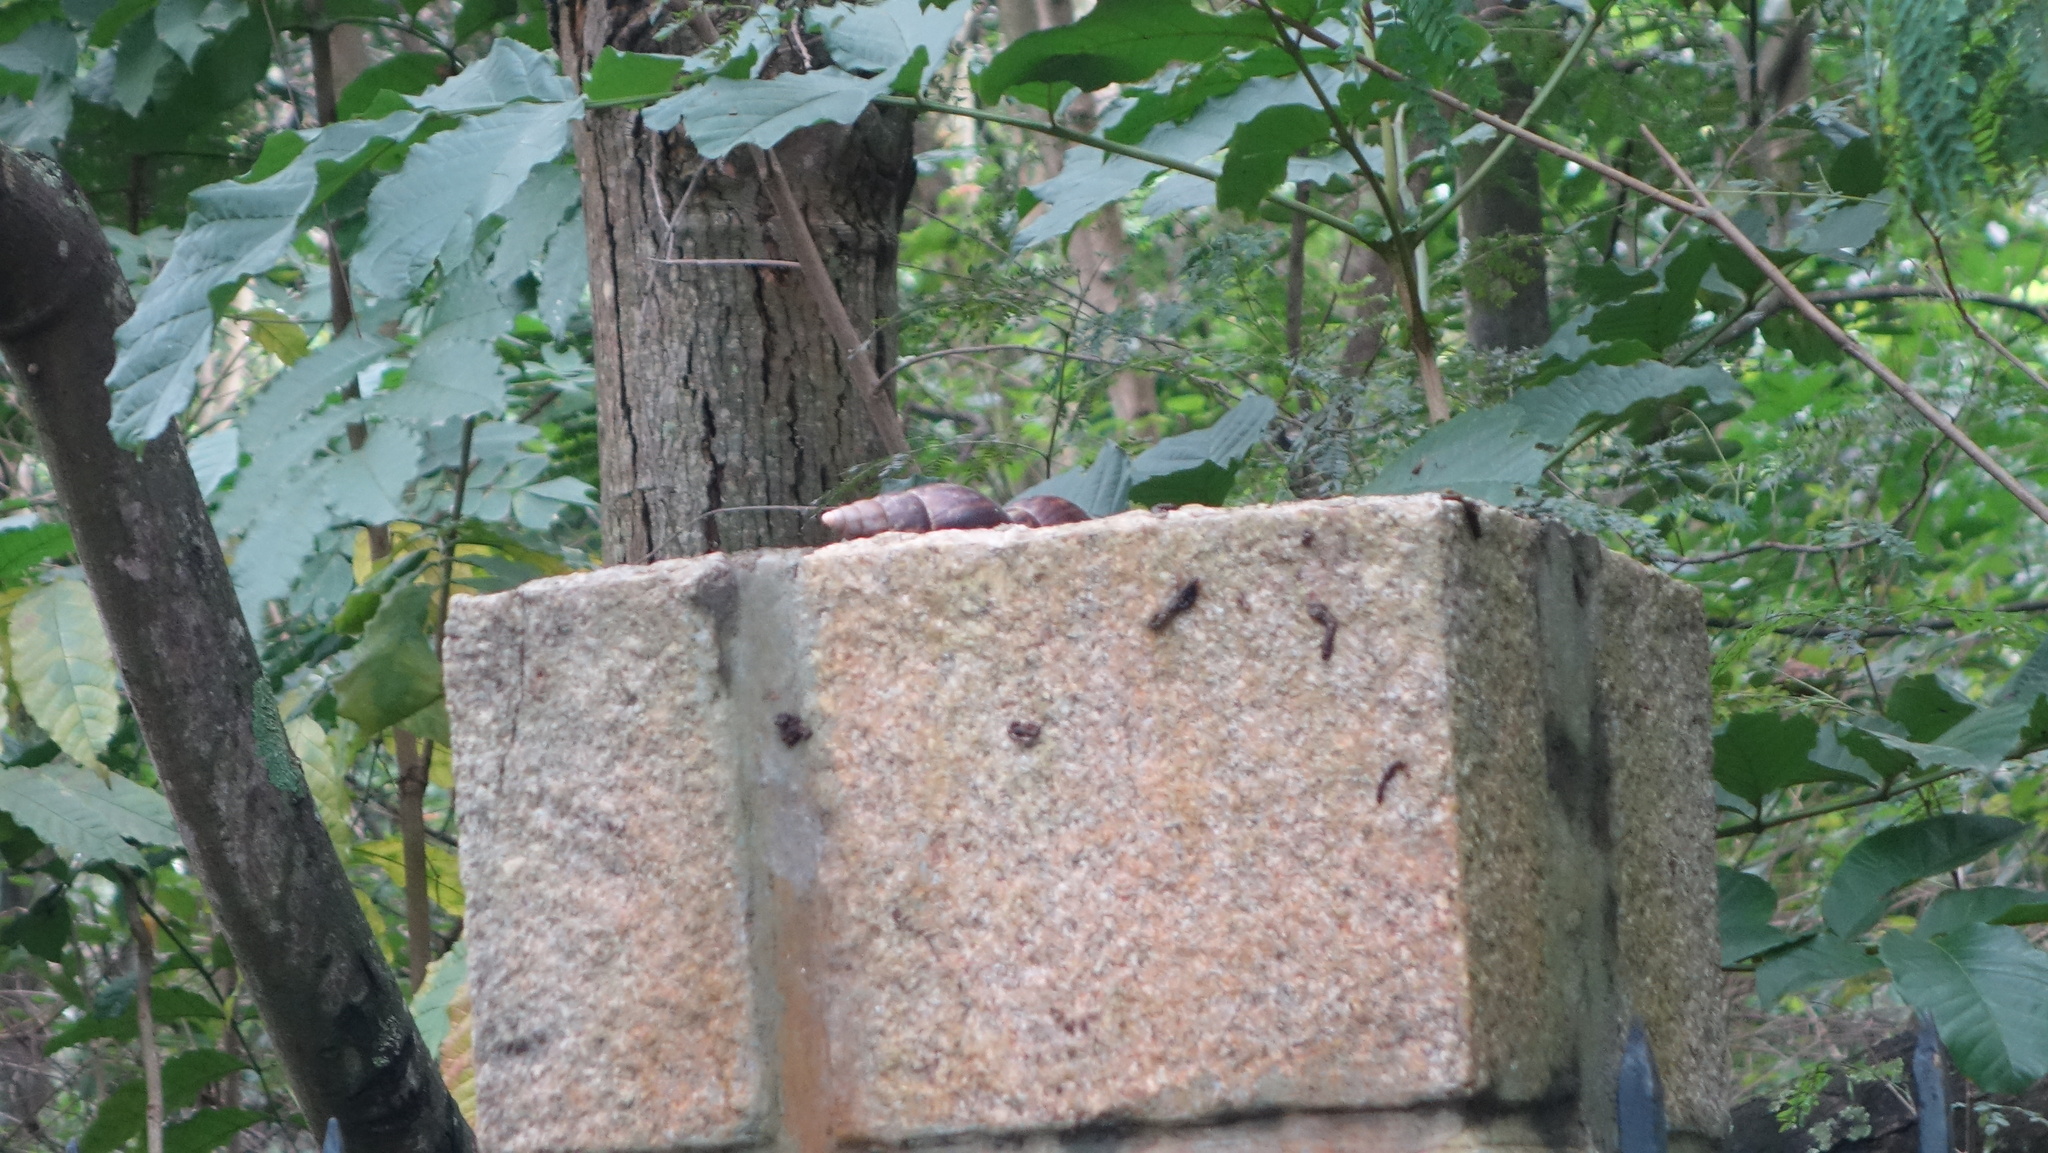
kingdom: Animalia
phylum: Mollusca
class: Gastropoda
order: Stylommatophora
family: Achatinidae
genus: Lissachatina
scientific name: Lissachatina fulica
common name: Giant african snail
